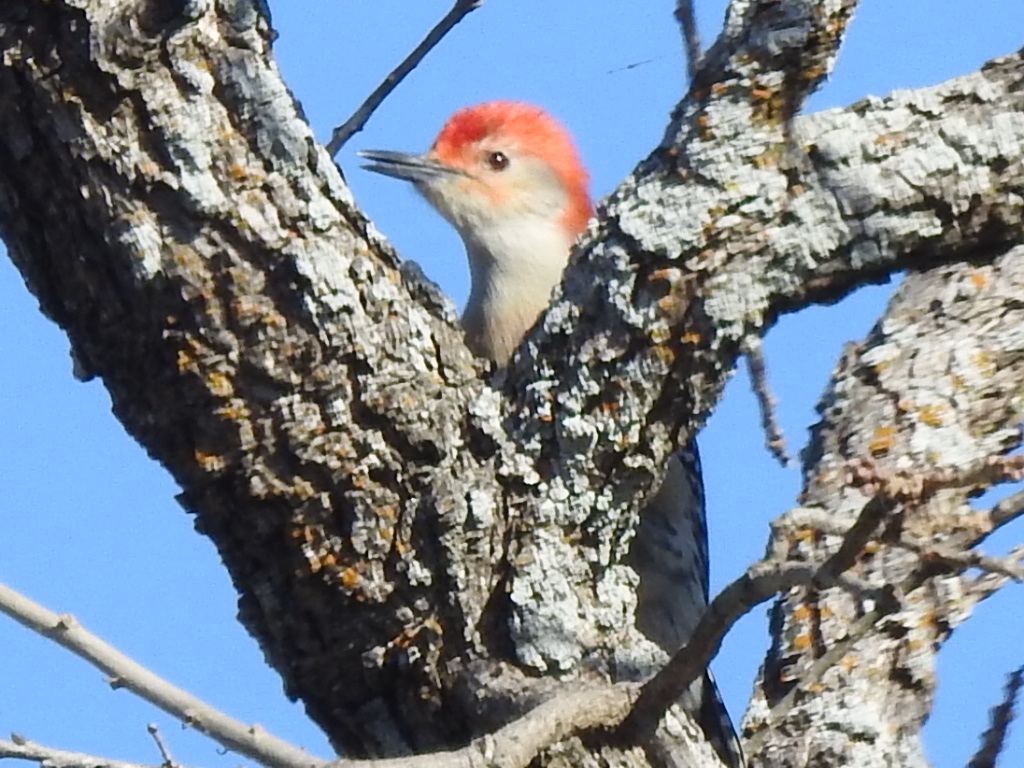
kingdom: Animalia
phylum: Chordata
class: Aves
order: Piciformes
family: Picidae
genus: Melanerpes
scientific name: Melanerpes carolinus
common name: Red-bellied woodpecker
